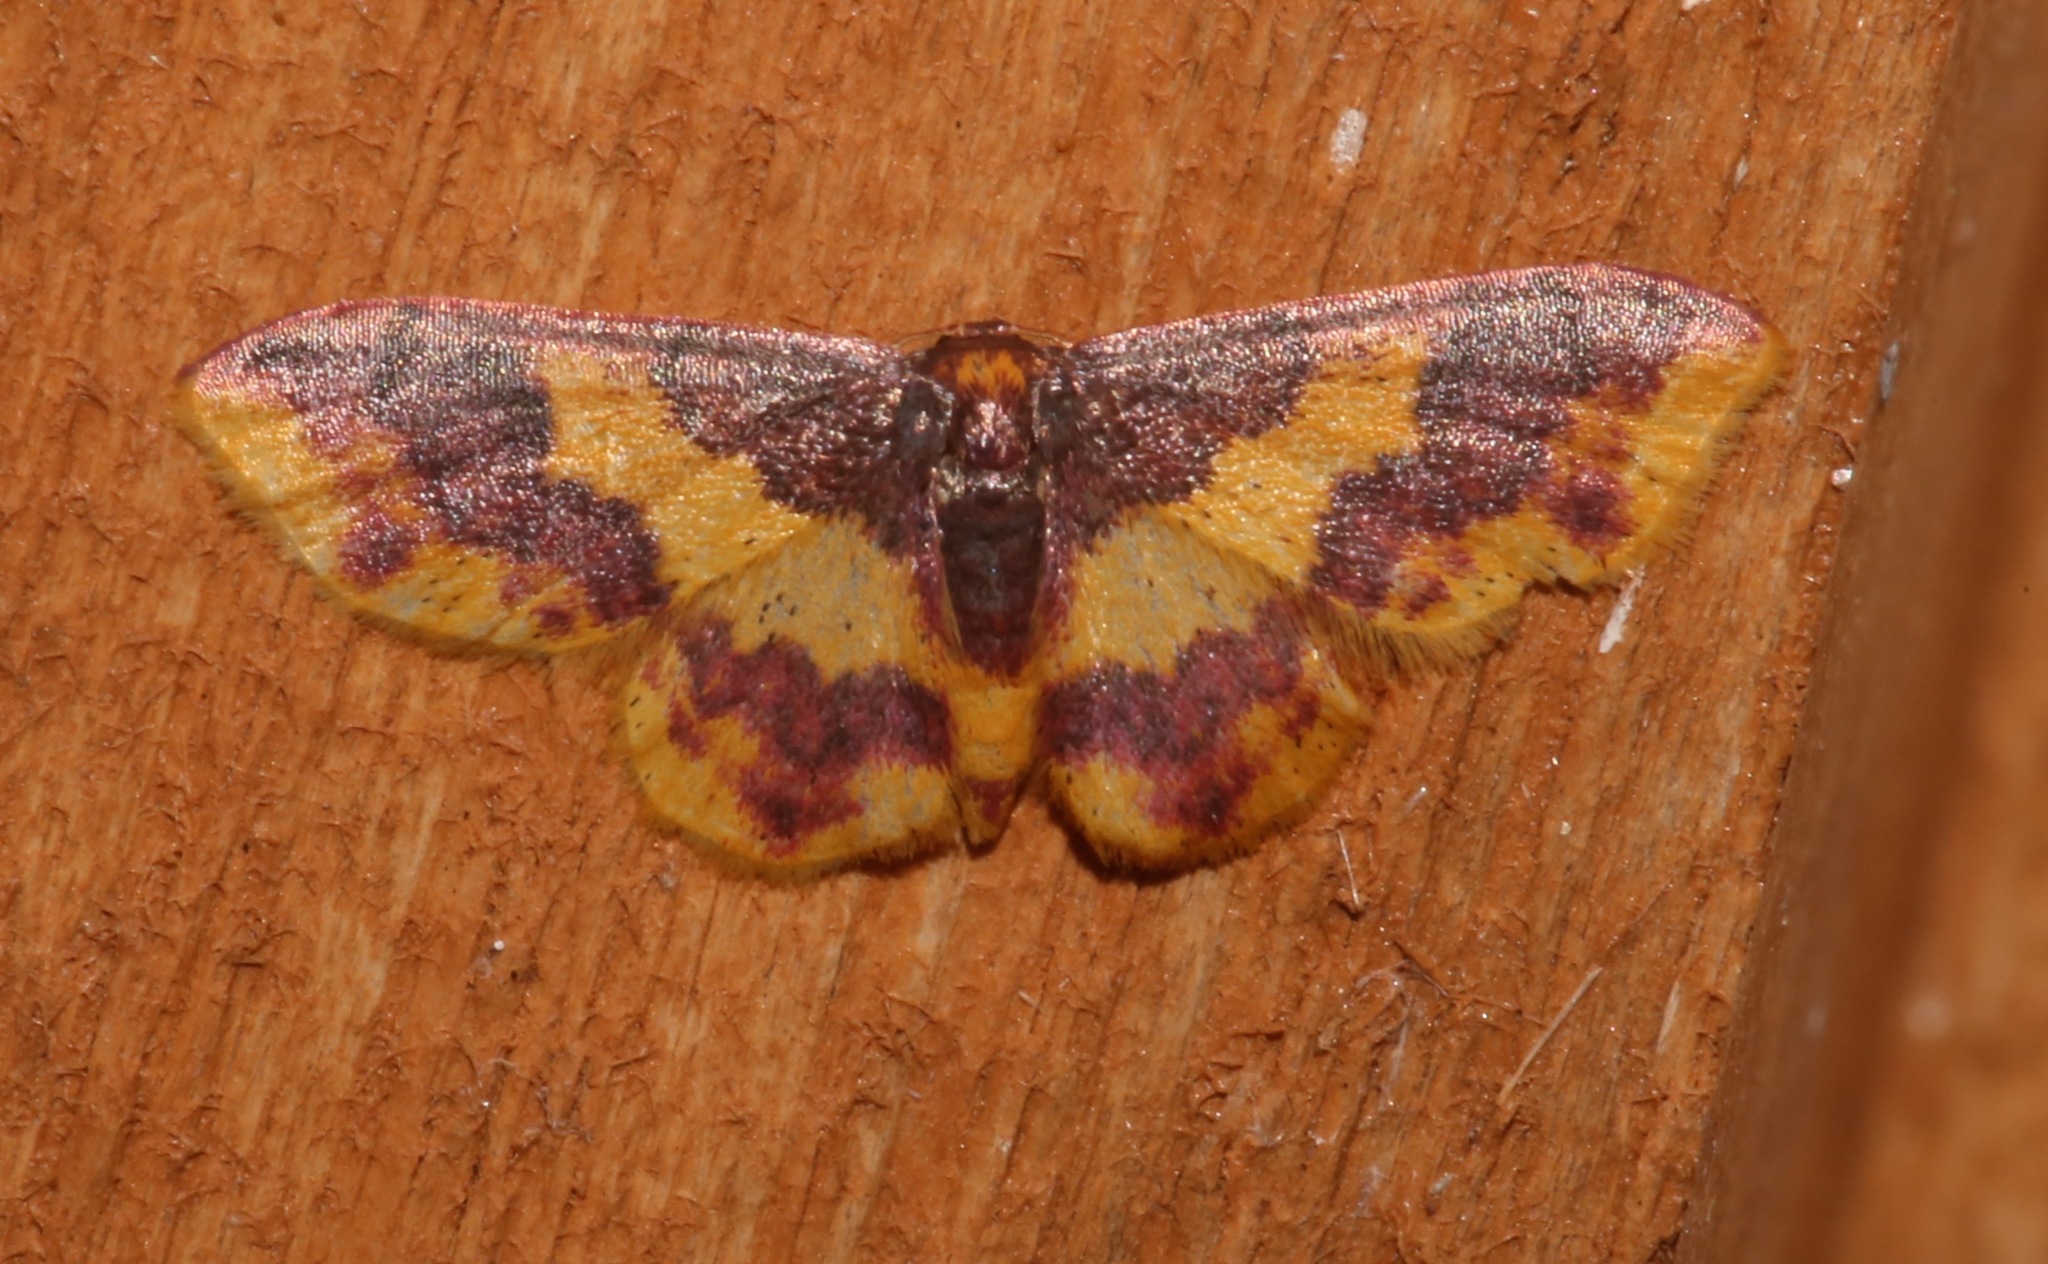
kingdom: Animalia
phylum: Arthropoda
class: Insecta
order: Lepidoptera
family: Geometridae
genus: Lophosis
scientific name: Lophosis labeculata
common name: Stained lophosis moth
